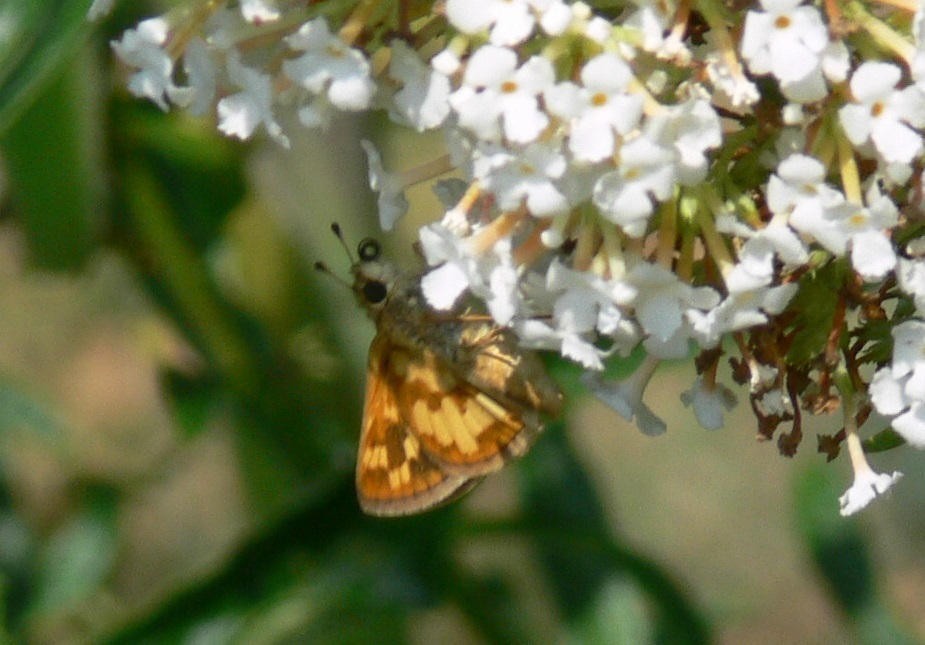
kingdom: Animalia
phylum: Arthropoda
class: Insecta
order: Lepidoptera
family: Hesperiidae
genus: Polites
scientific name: Polites coras
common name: Peck's skipper
